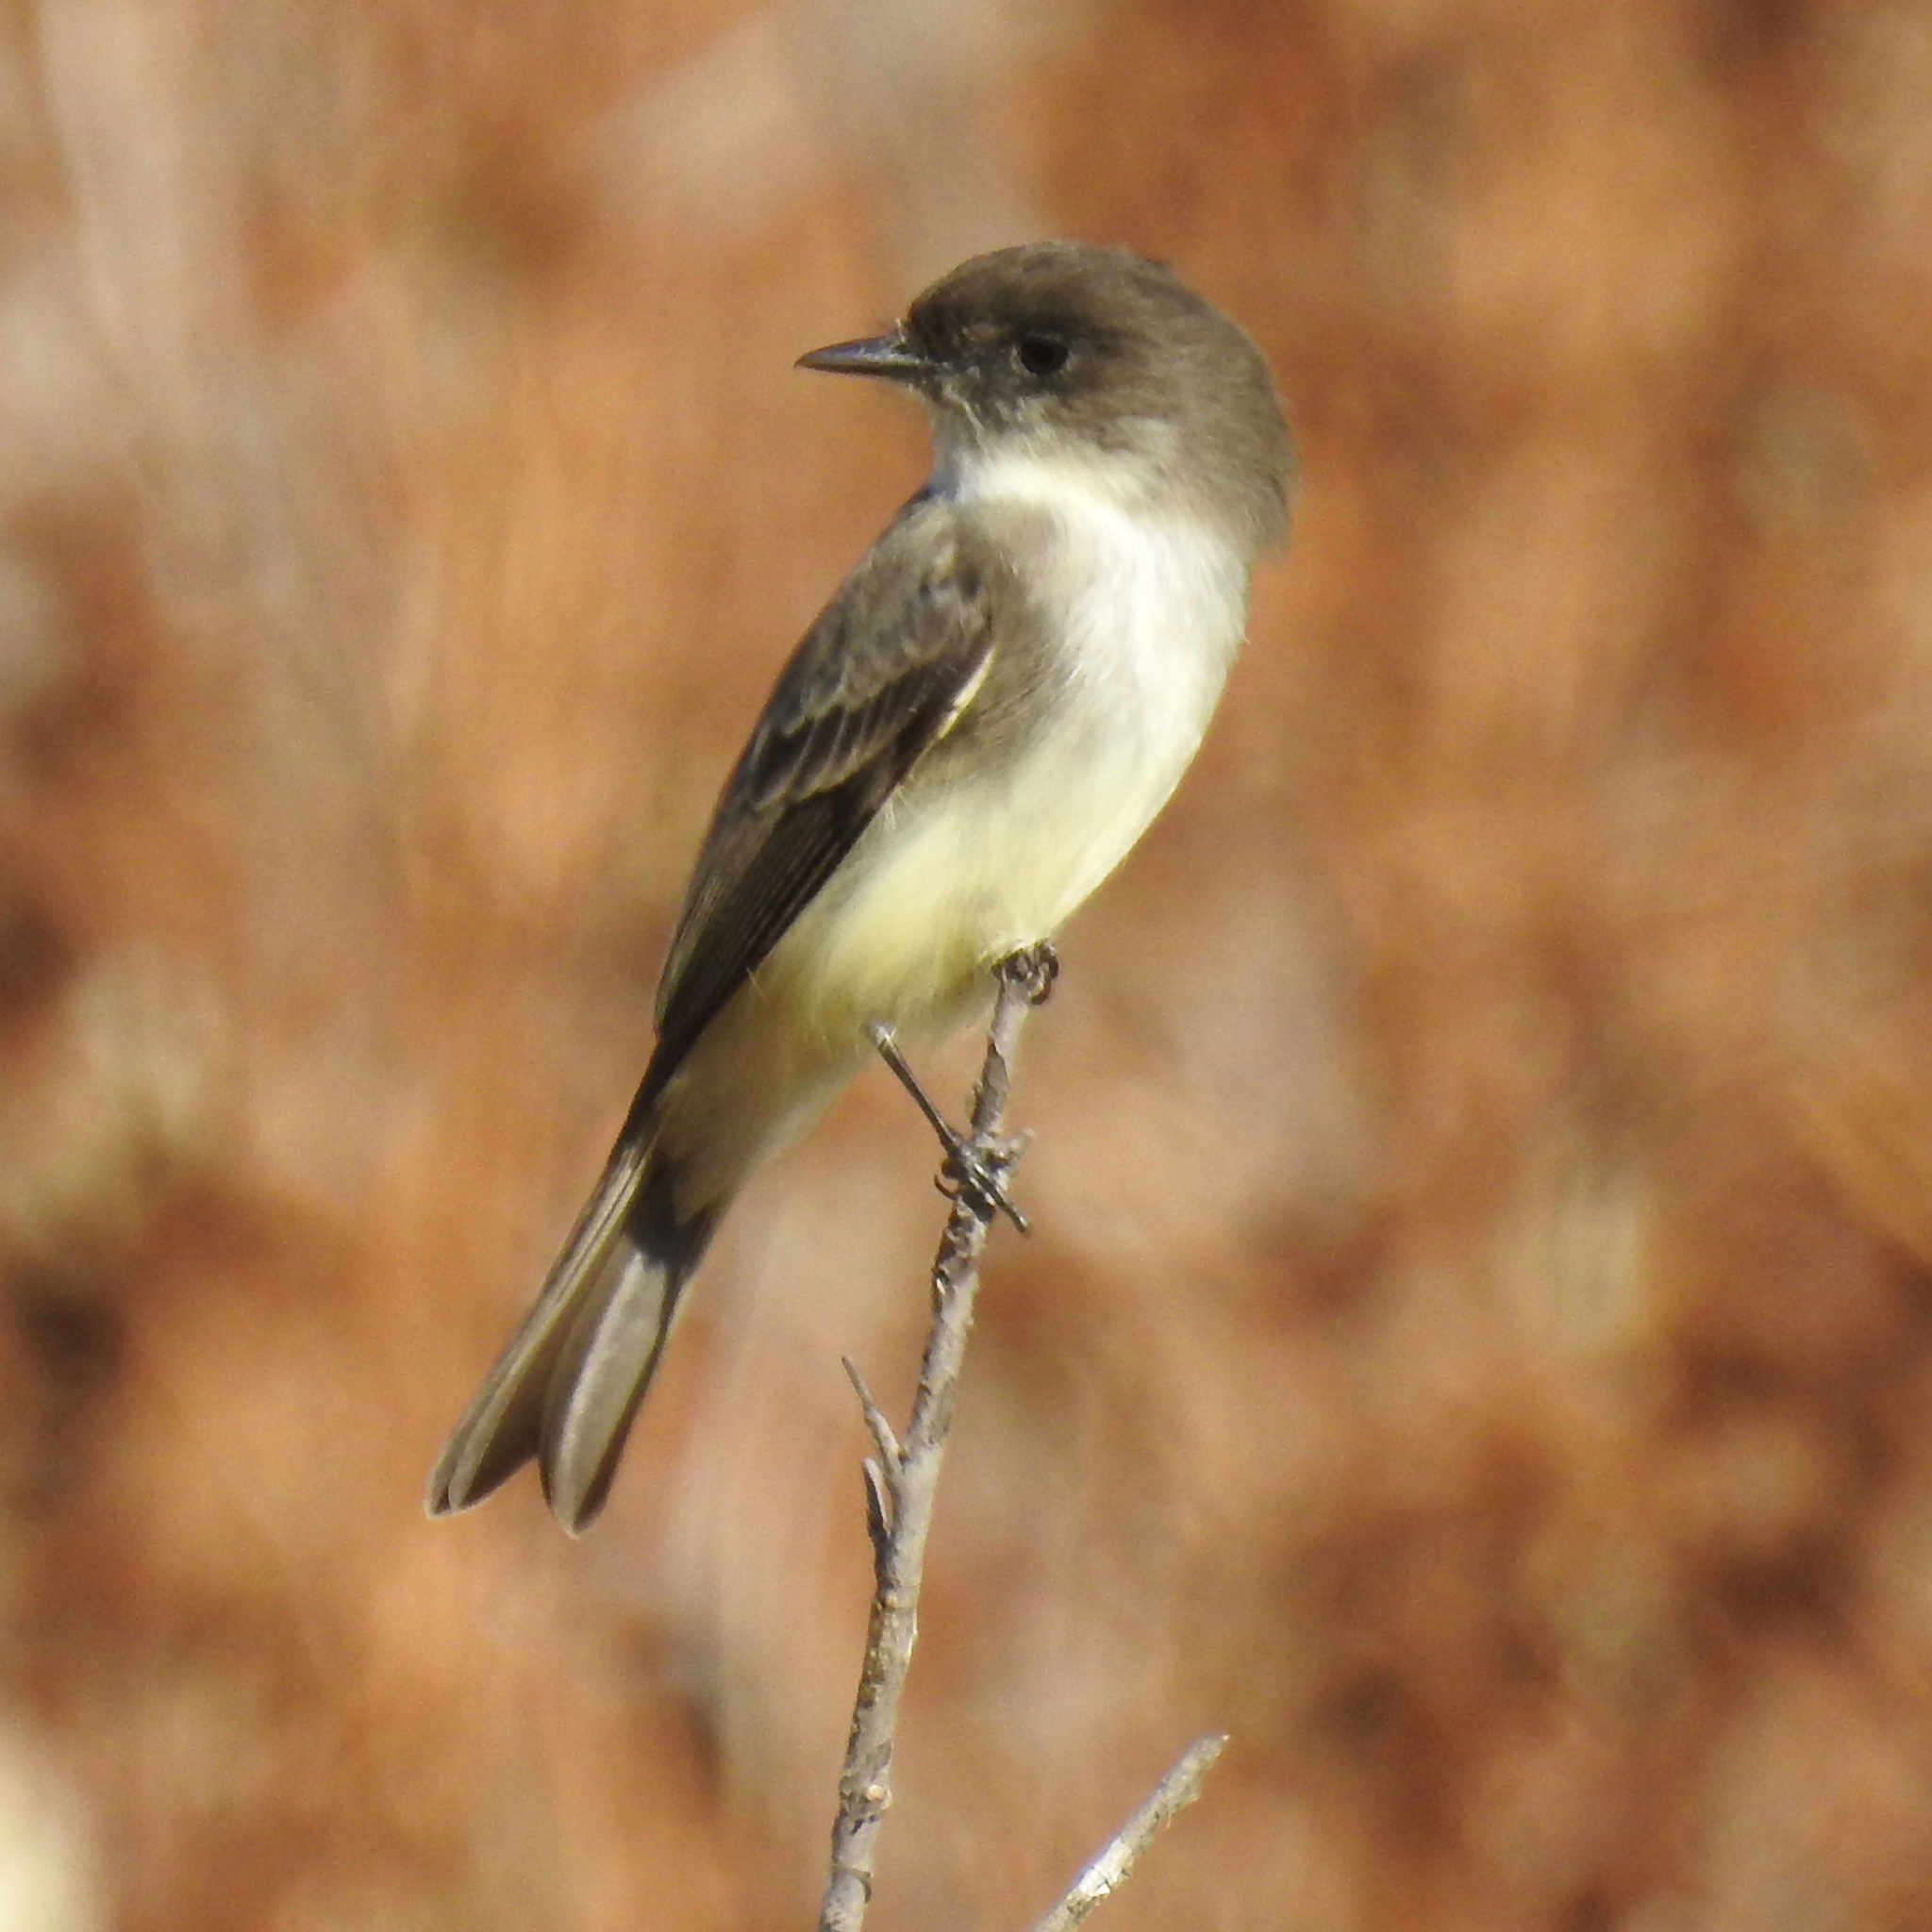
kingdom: Animalia
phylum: Chordata
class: Aves
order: Passeriformes
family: Tyrannidae
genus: Sayornis
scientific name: Sayornis phoebe
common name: Eastern phoebe
